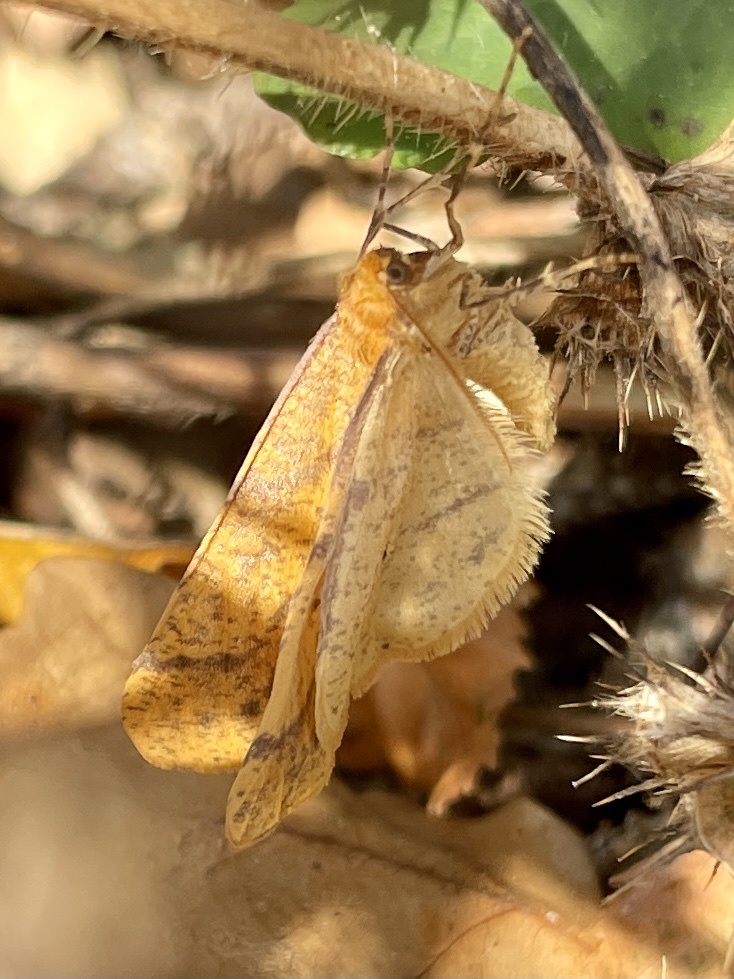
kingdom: Animalia
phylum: Arthropoda
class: Insecta
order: Lepidoptera
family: Geometridae
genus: Agriopis
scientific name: Agriopis aurantiaria
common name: Scarce umber
